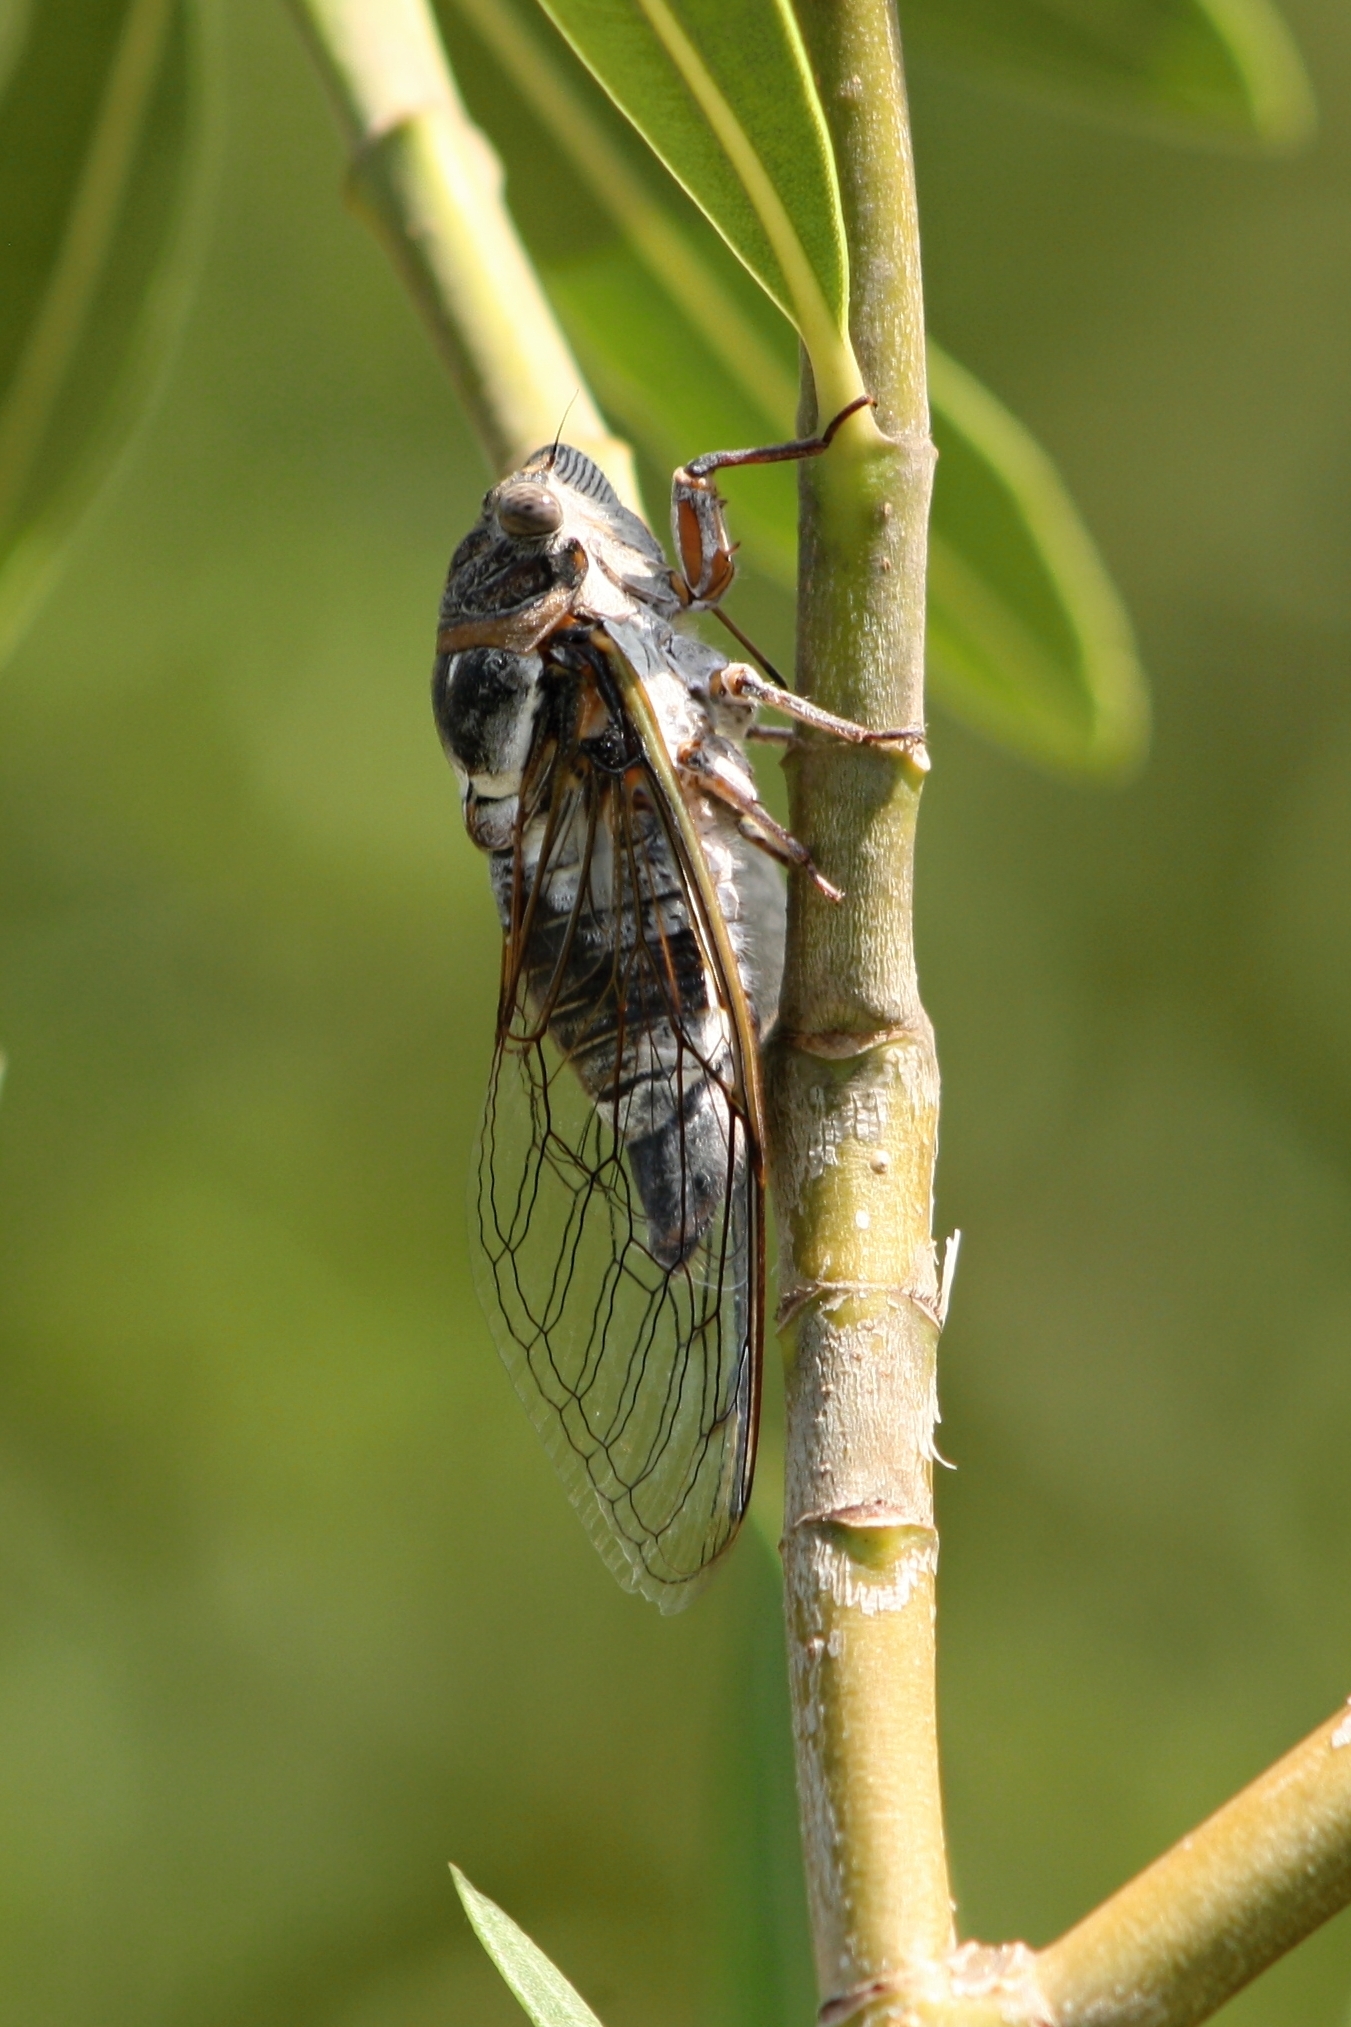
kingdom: Animalia
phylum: Arthropoda
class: Insecta
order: Hemiptera
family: Cicadidae
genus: Lyristes
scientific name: Lyristes plebejus
